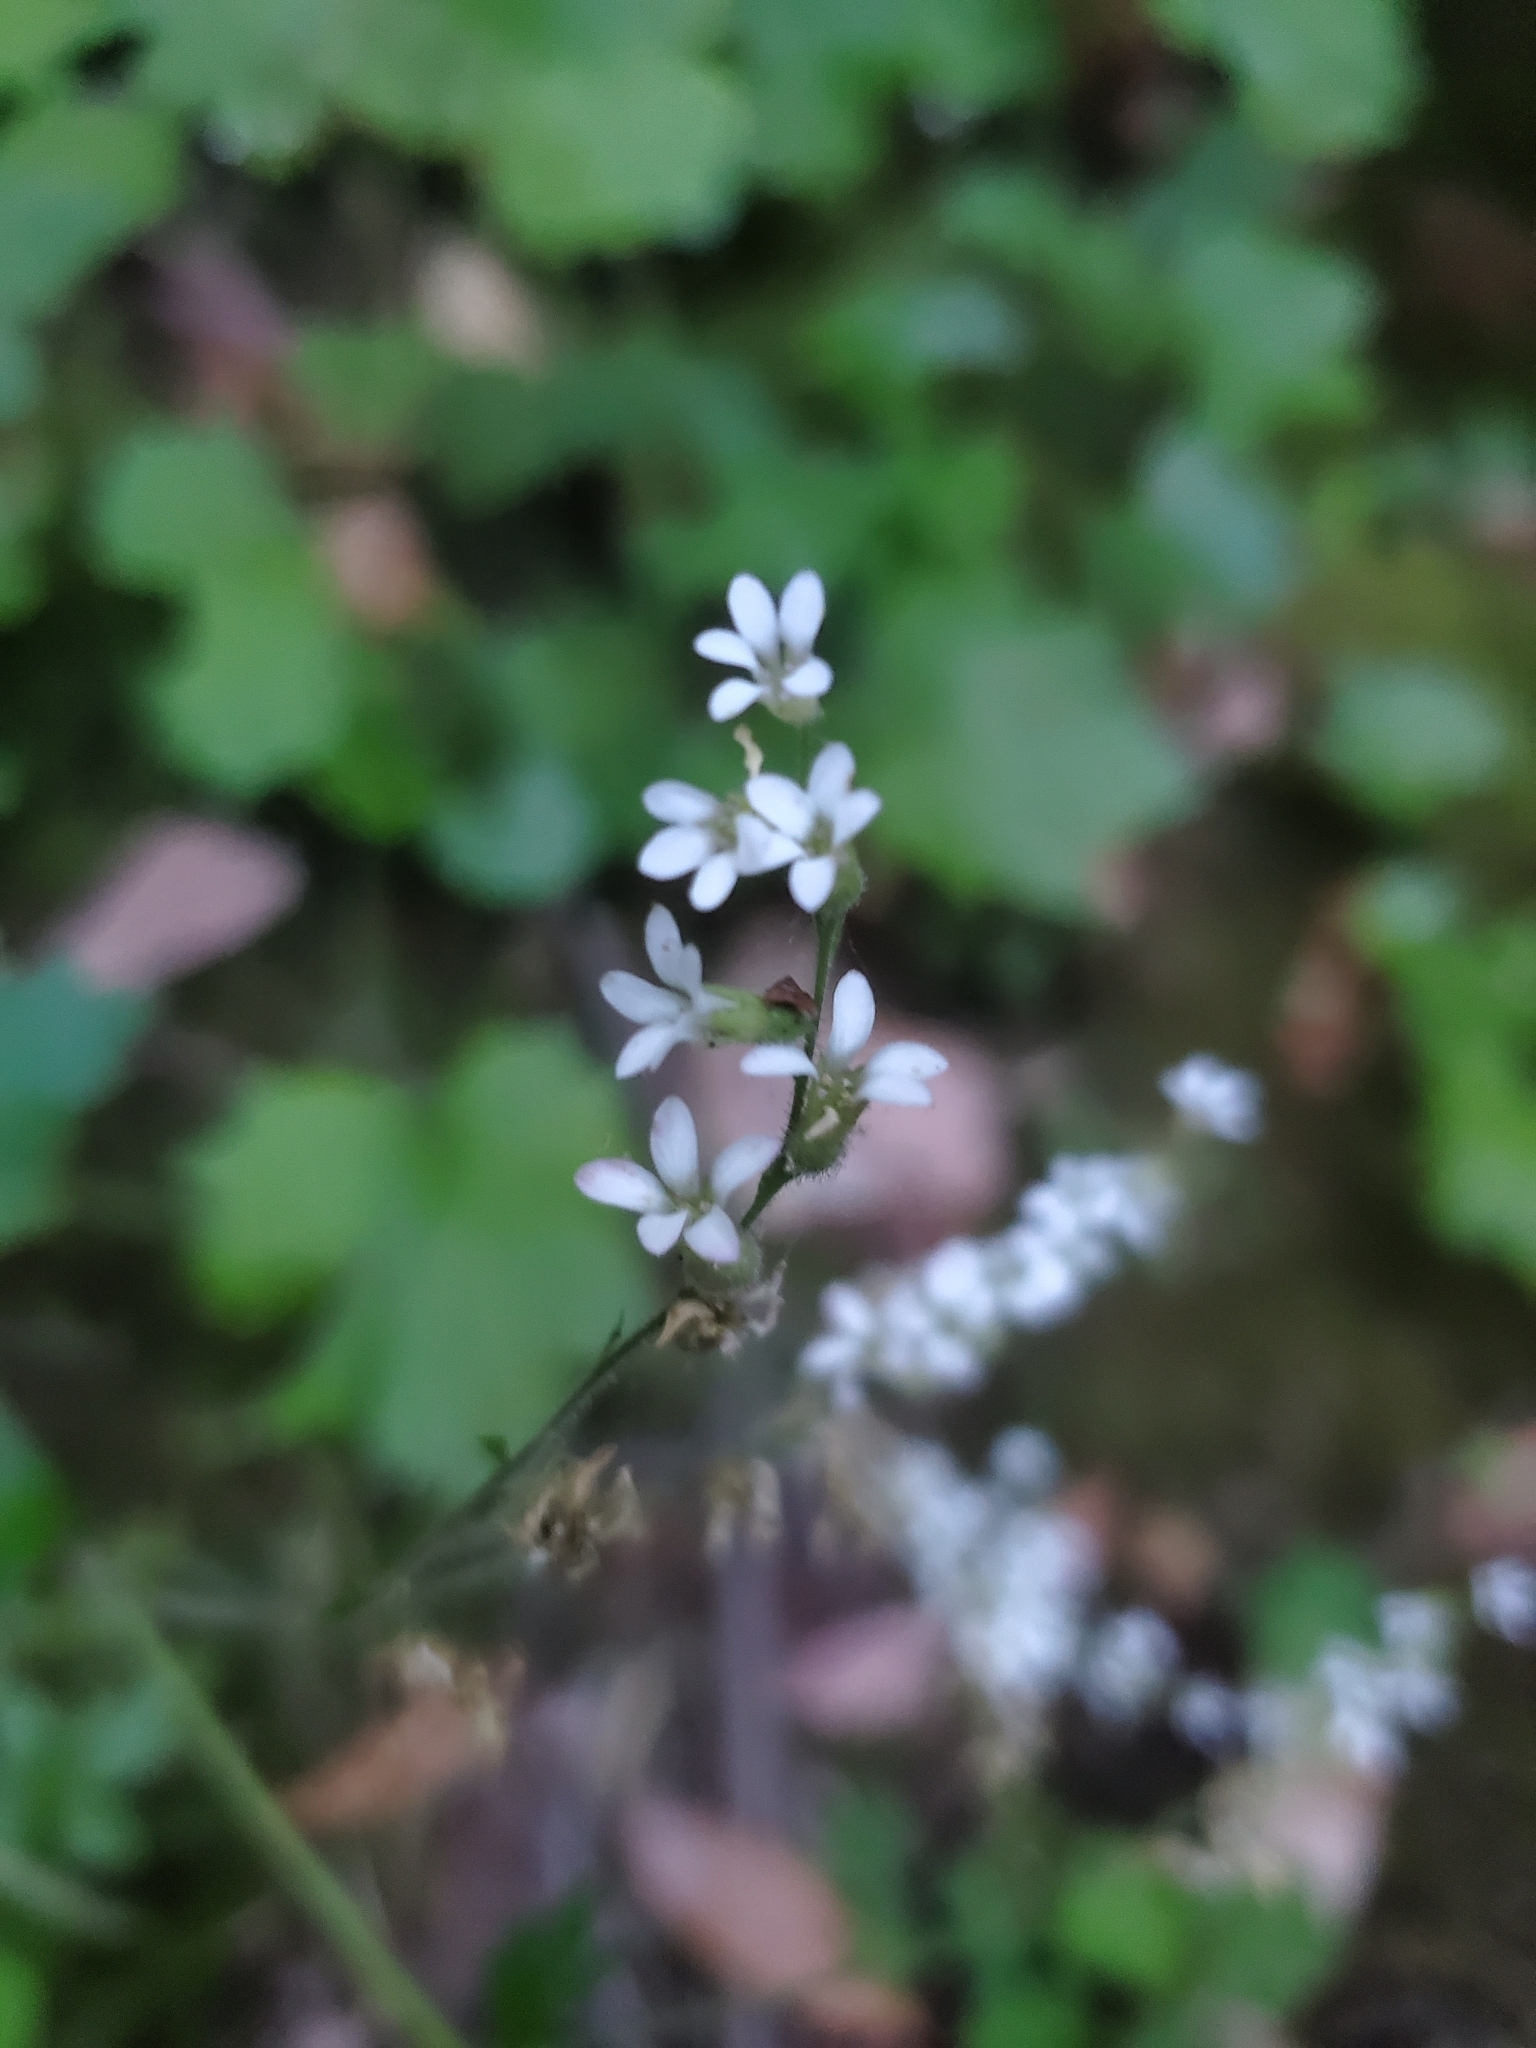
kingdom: Plantae
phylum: Tracheophyta
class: Magnoliopsida
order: Saxifragales
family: Saxifragaceae
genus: Boykinia
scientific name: Boykinia occidentalis
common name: Coast boykinia
